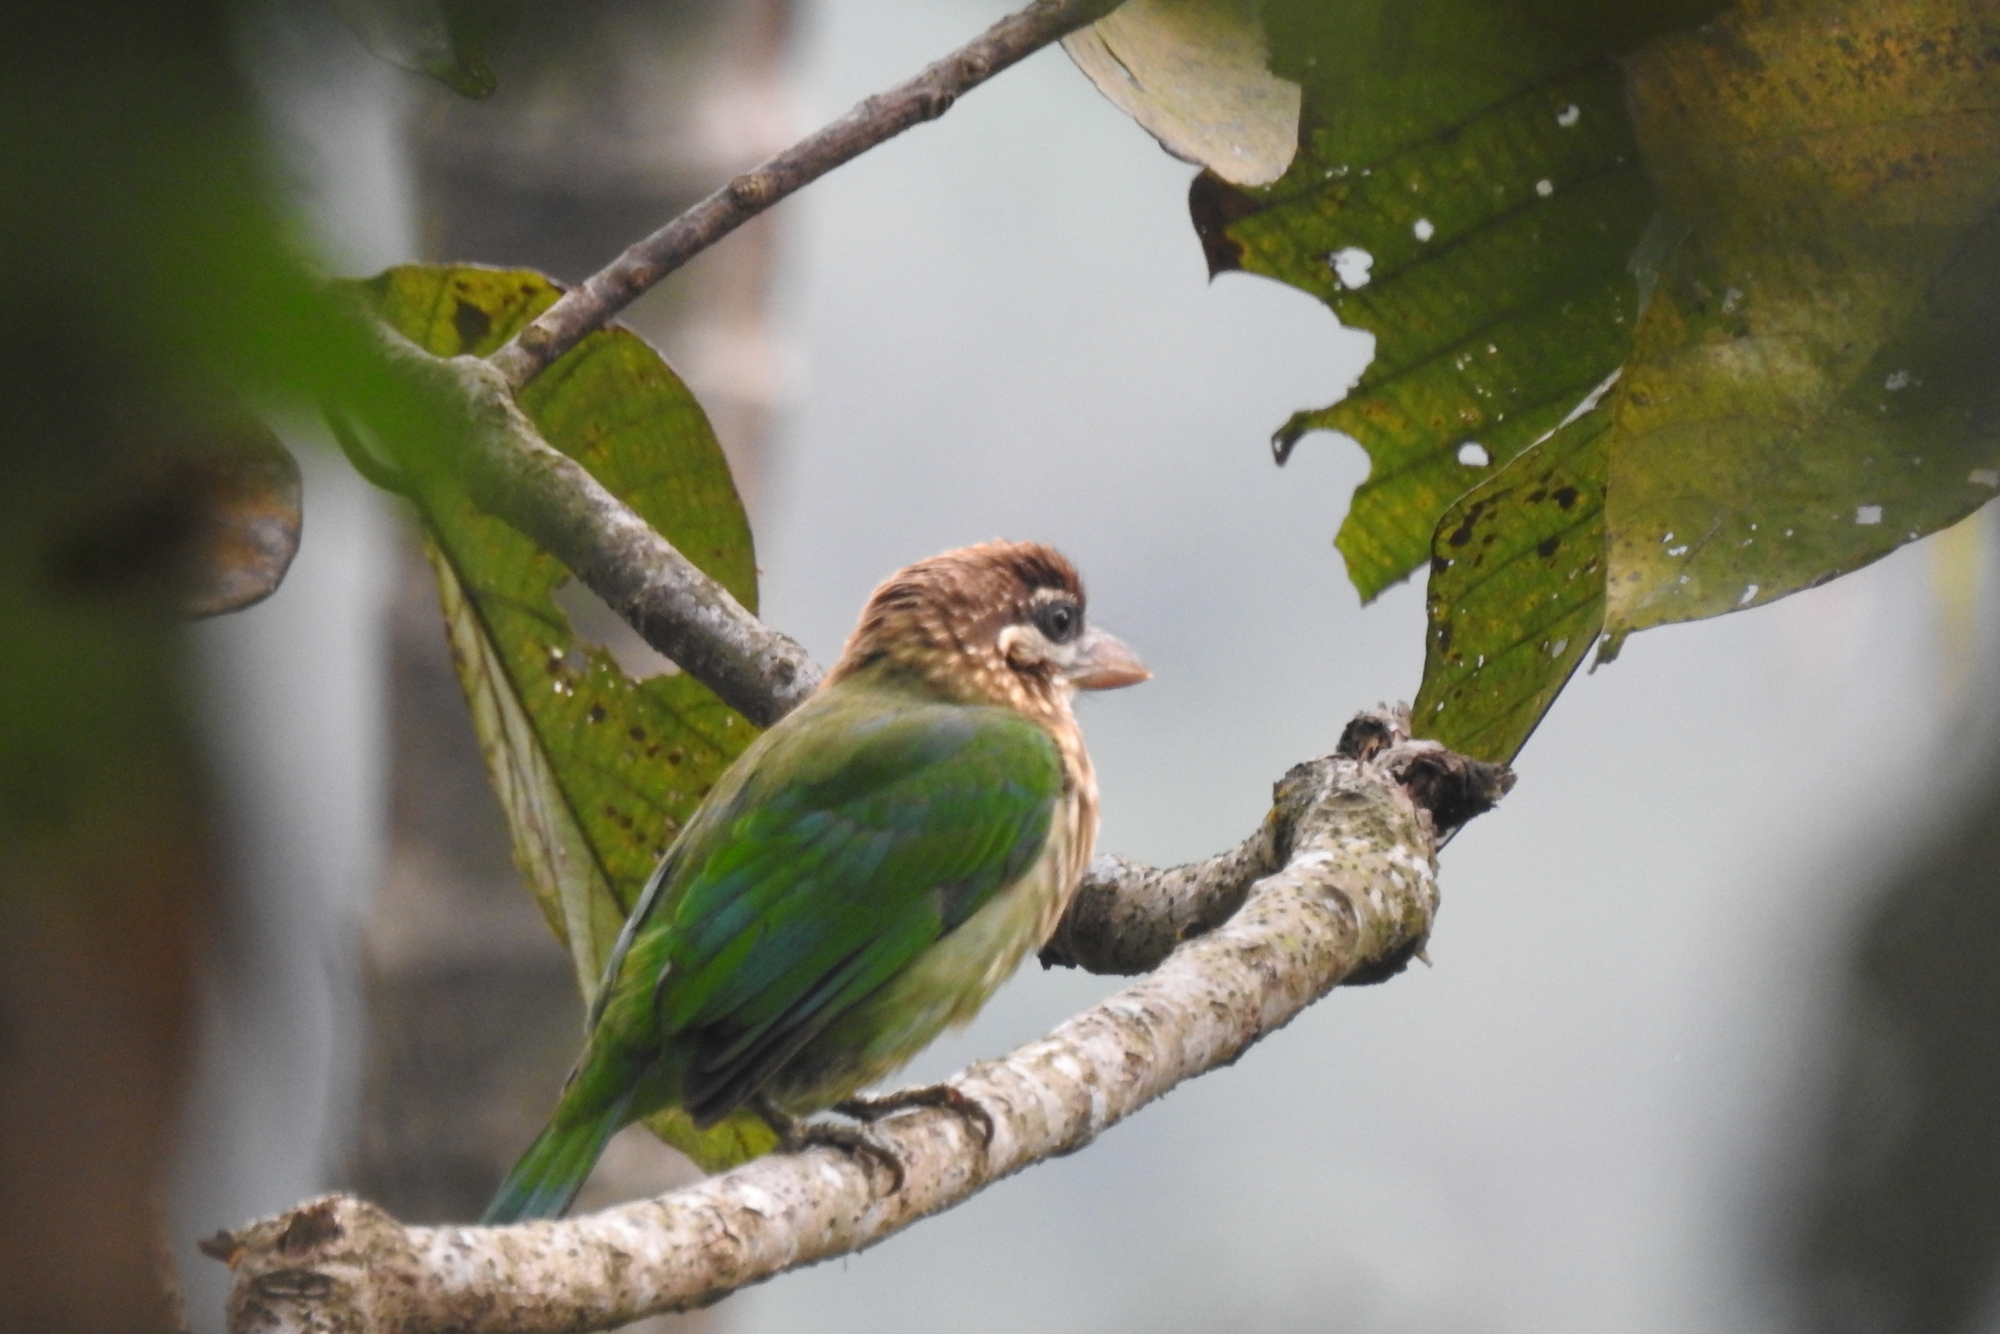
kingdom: Animalia
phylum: Chordata
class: Aves
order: Piciformes
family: Megalaimidae
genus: Psilopogon
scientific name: Psilopogon viridis
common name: White-cheeked barbet
